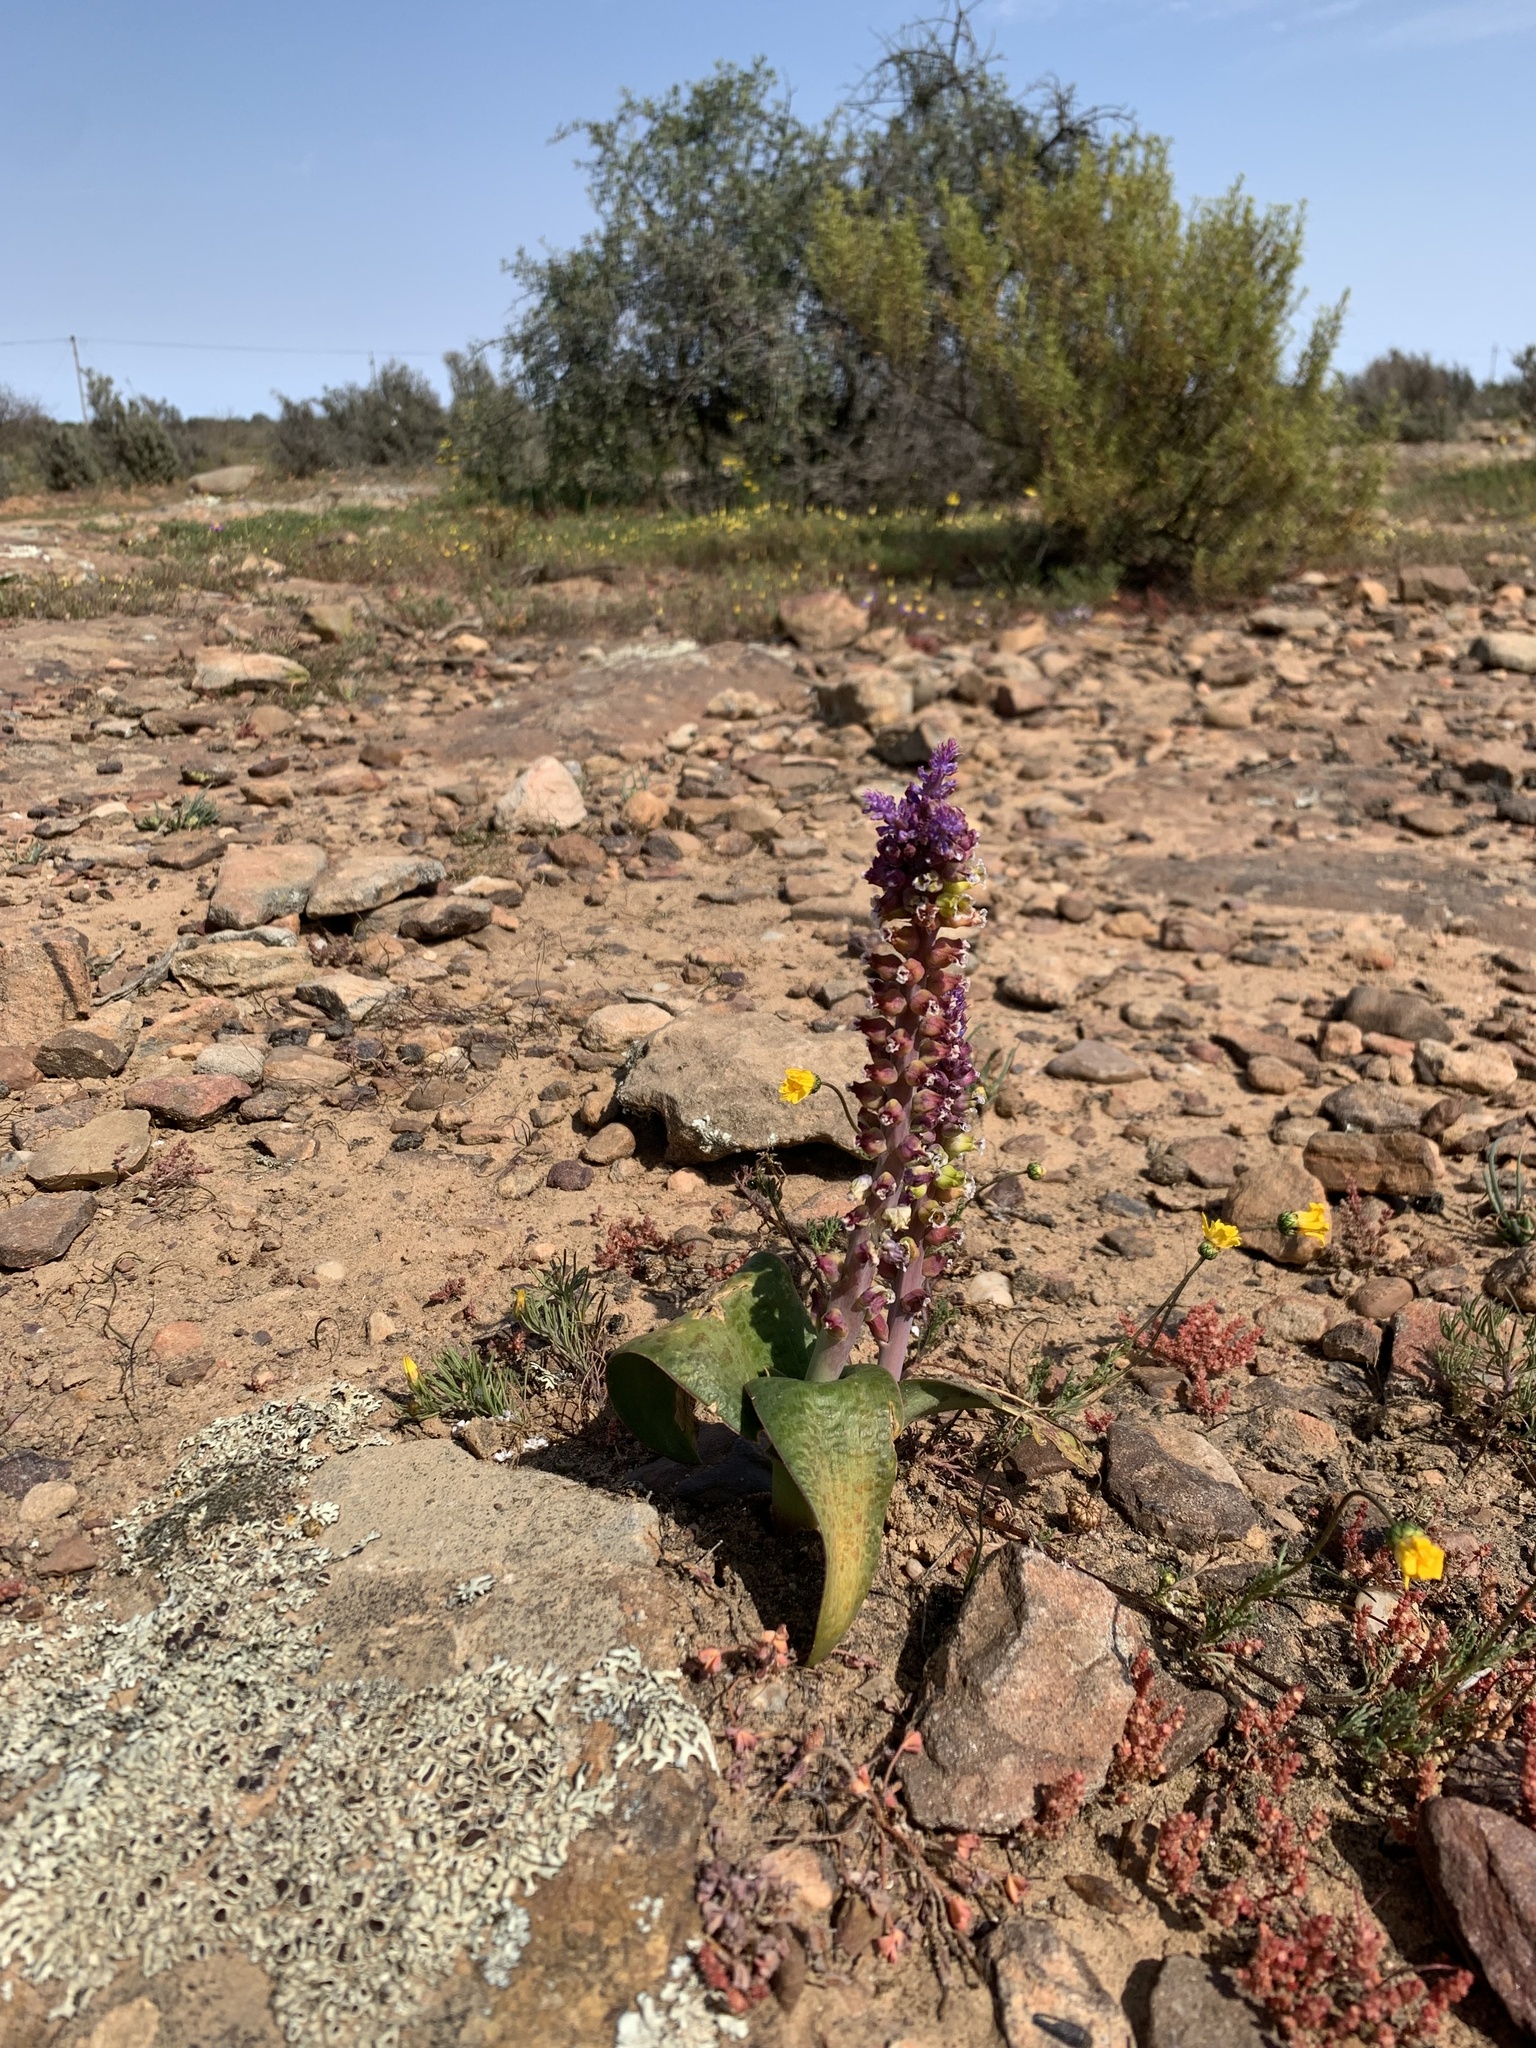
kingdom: Plantae
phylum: Tracheophyta
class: Liliopsida
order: Asparagales
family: Asparagaceae
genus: Lachenalia
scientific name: Lachenalia membranacea
